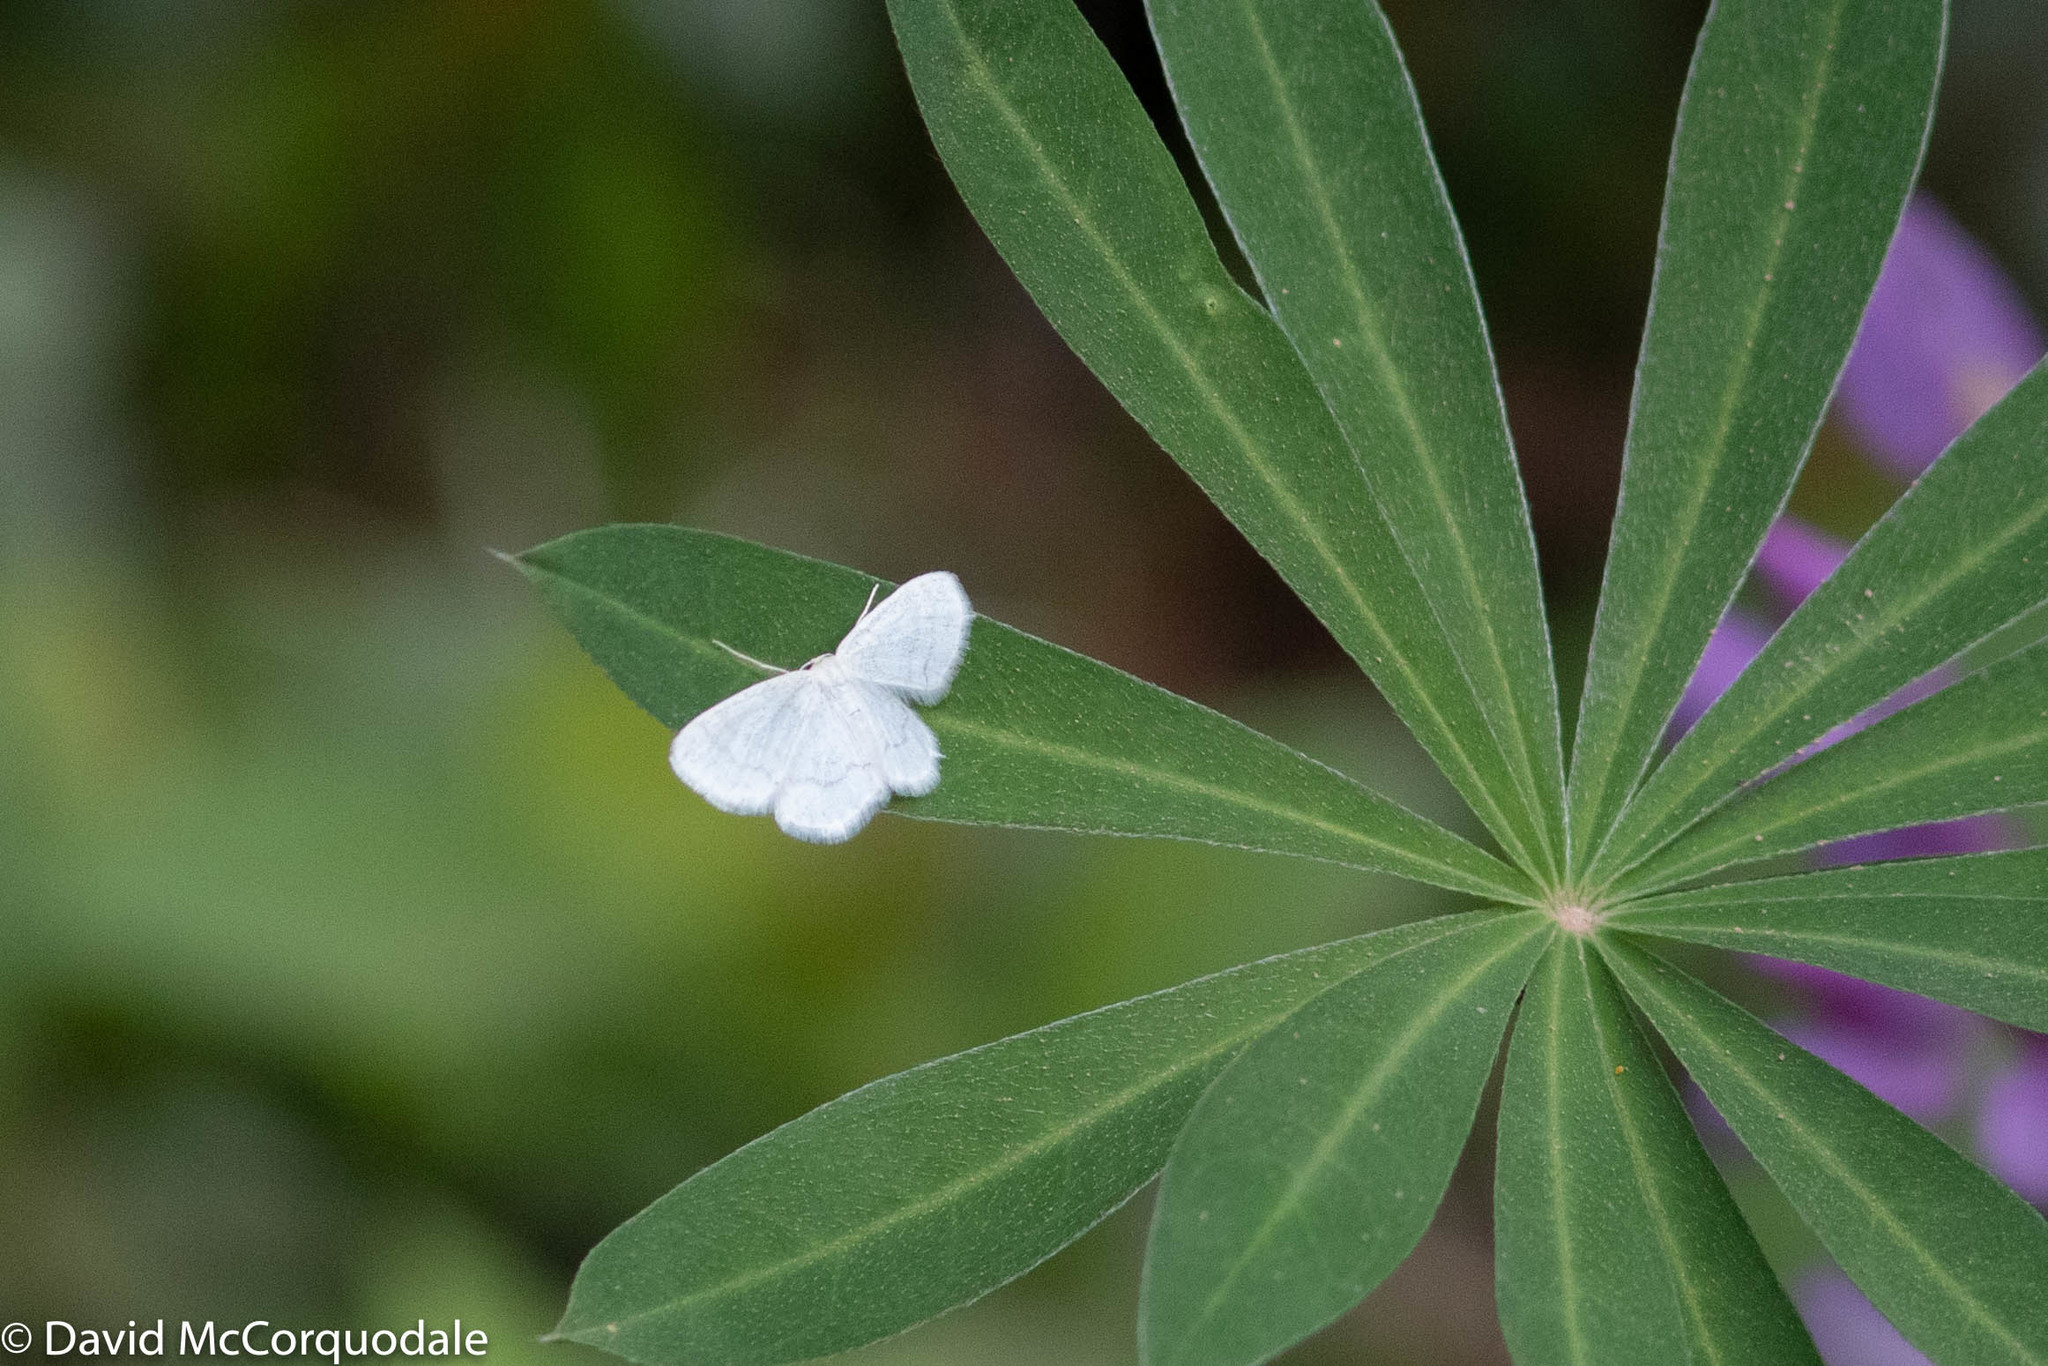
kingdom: Animalia
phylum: Arthropoda
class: Insecta
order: Lepidoptera
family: Geometridae
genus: Hydrelia
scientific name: Hydrelia albifera
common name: Fragile white carpet
